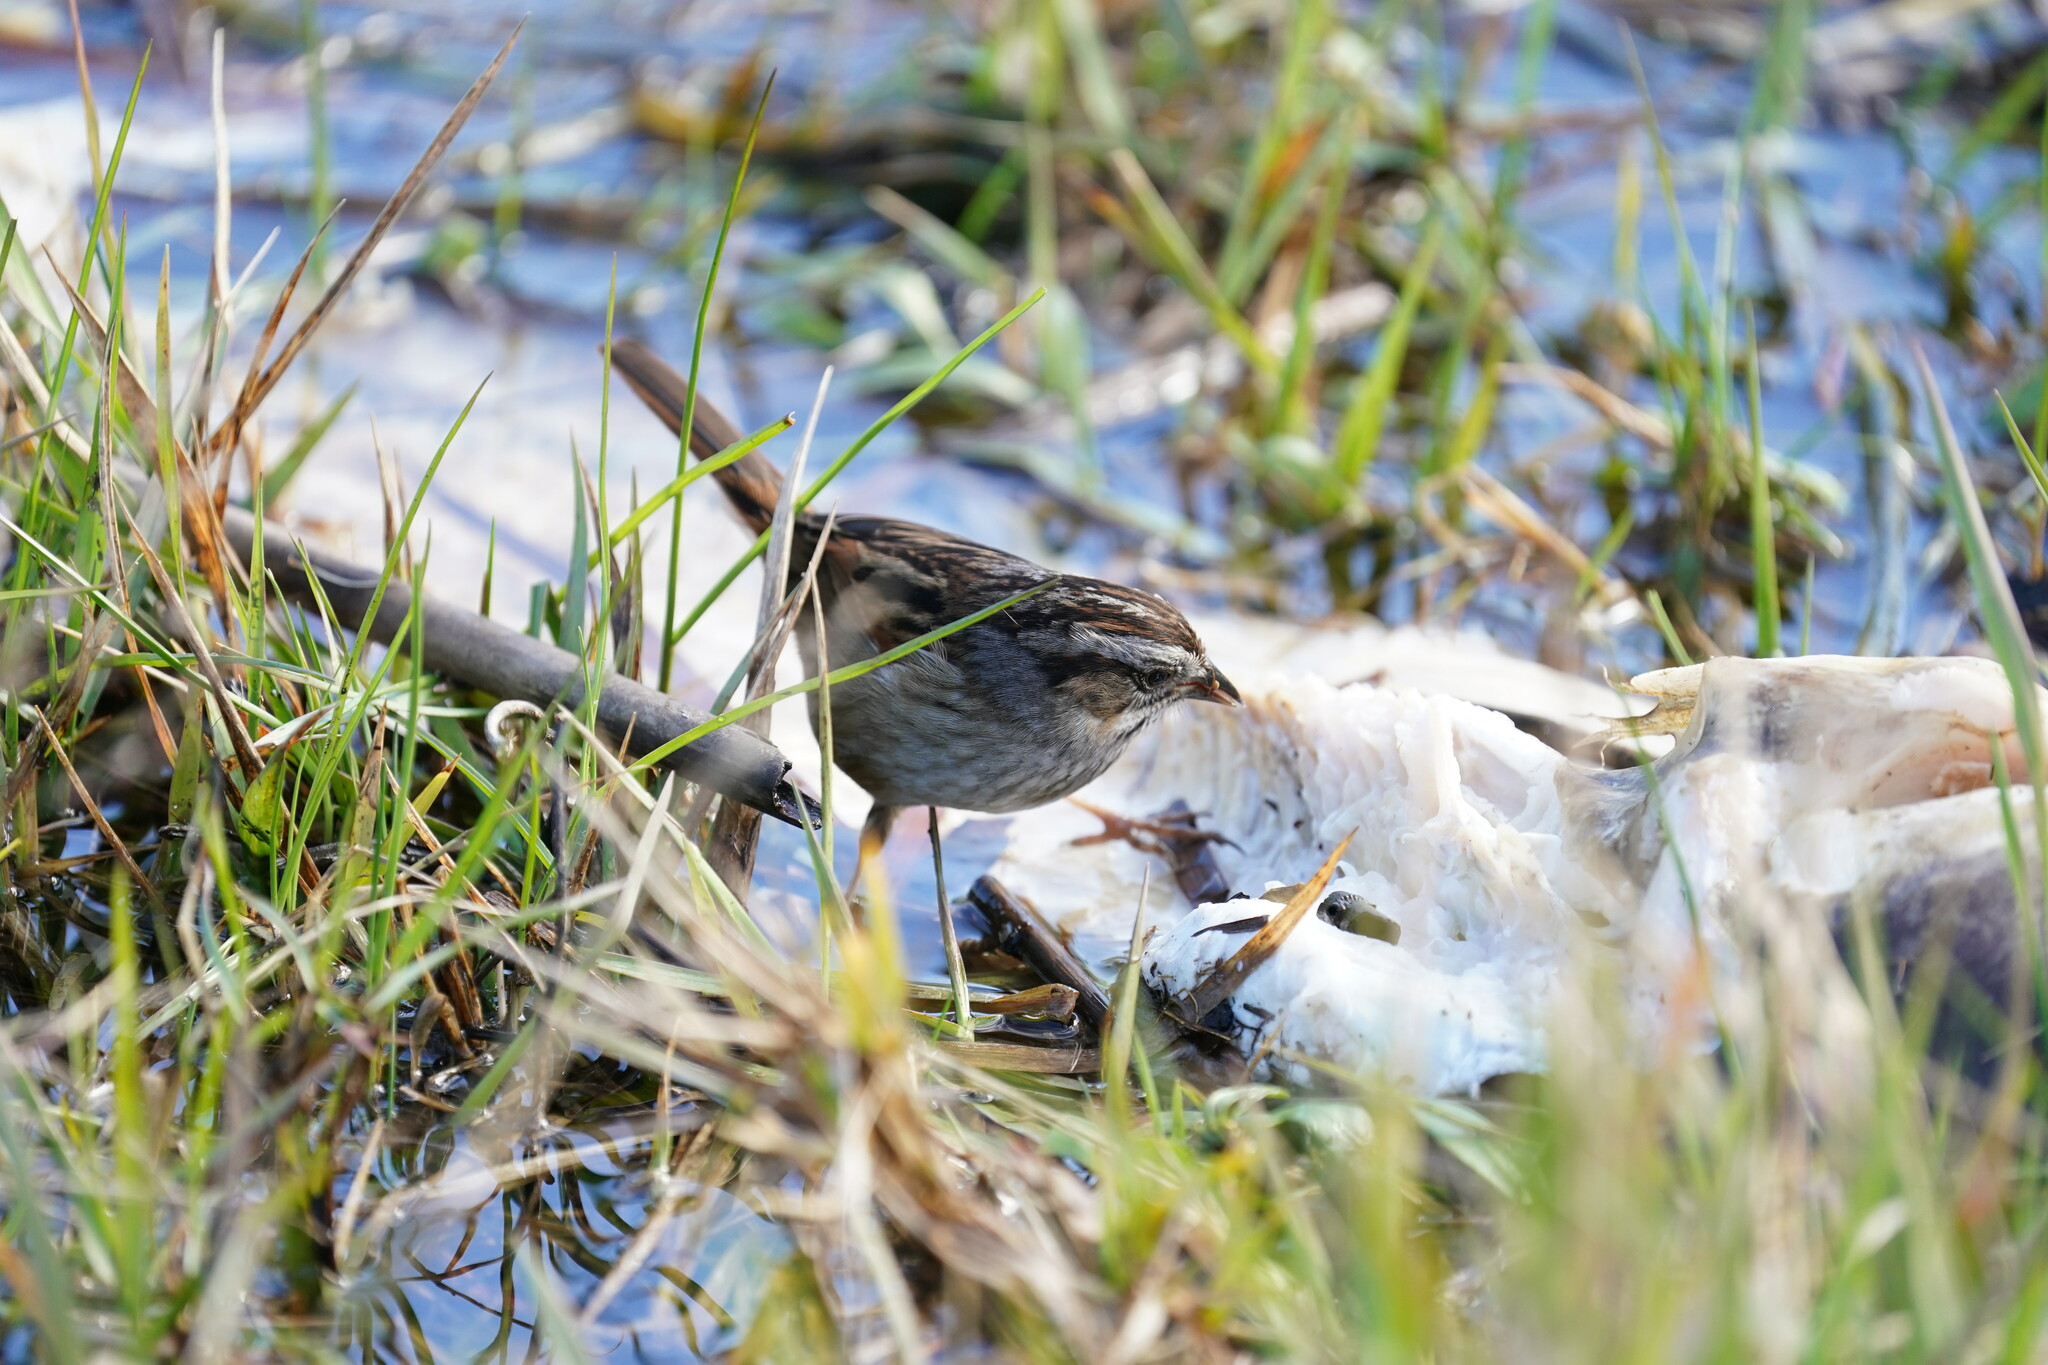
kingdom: Animalia
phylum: Chordata
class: Aves
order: Passeriformes
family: Passerellidae
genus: Melospiza
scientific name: Melospiza georgiana
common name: Swamp sparrow
